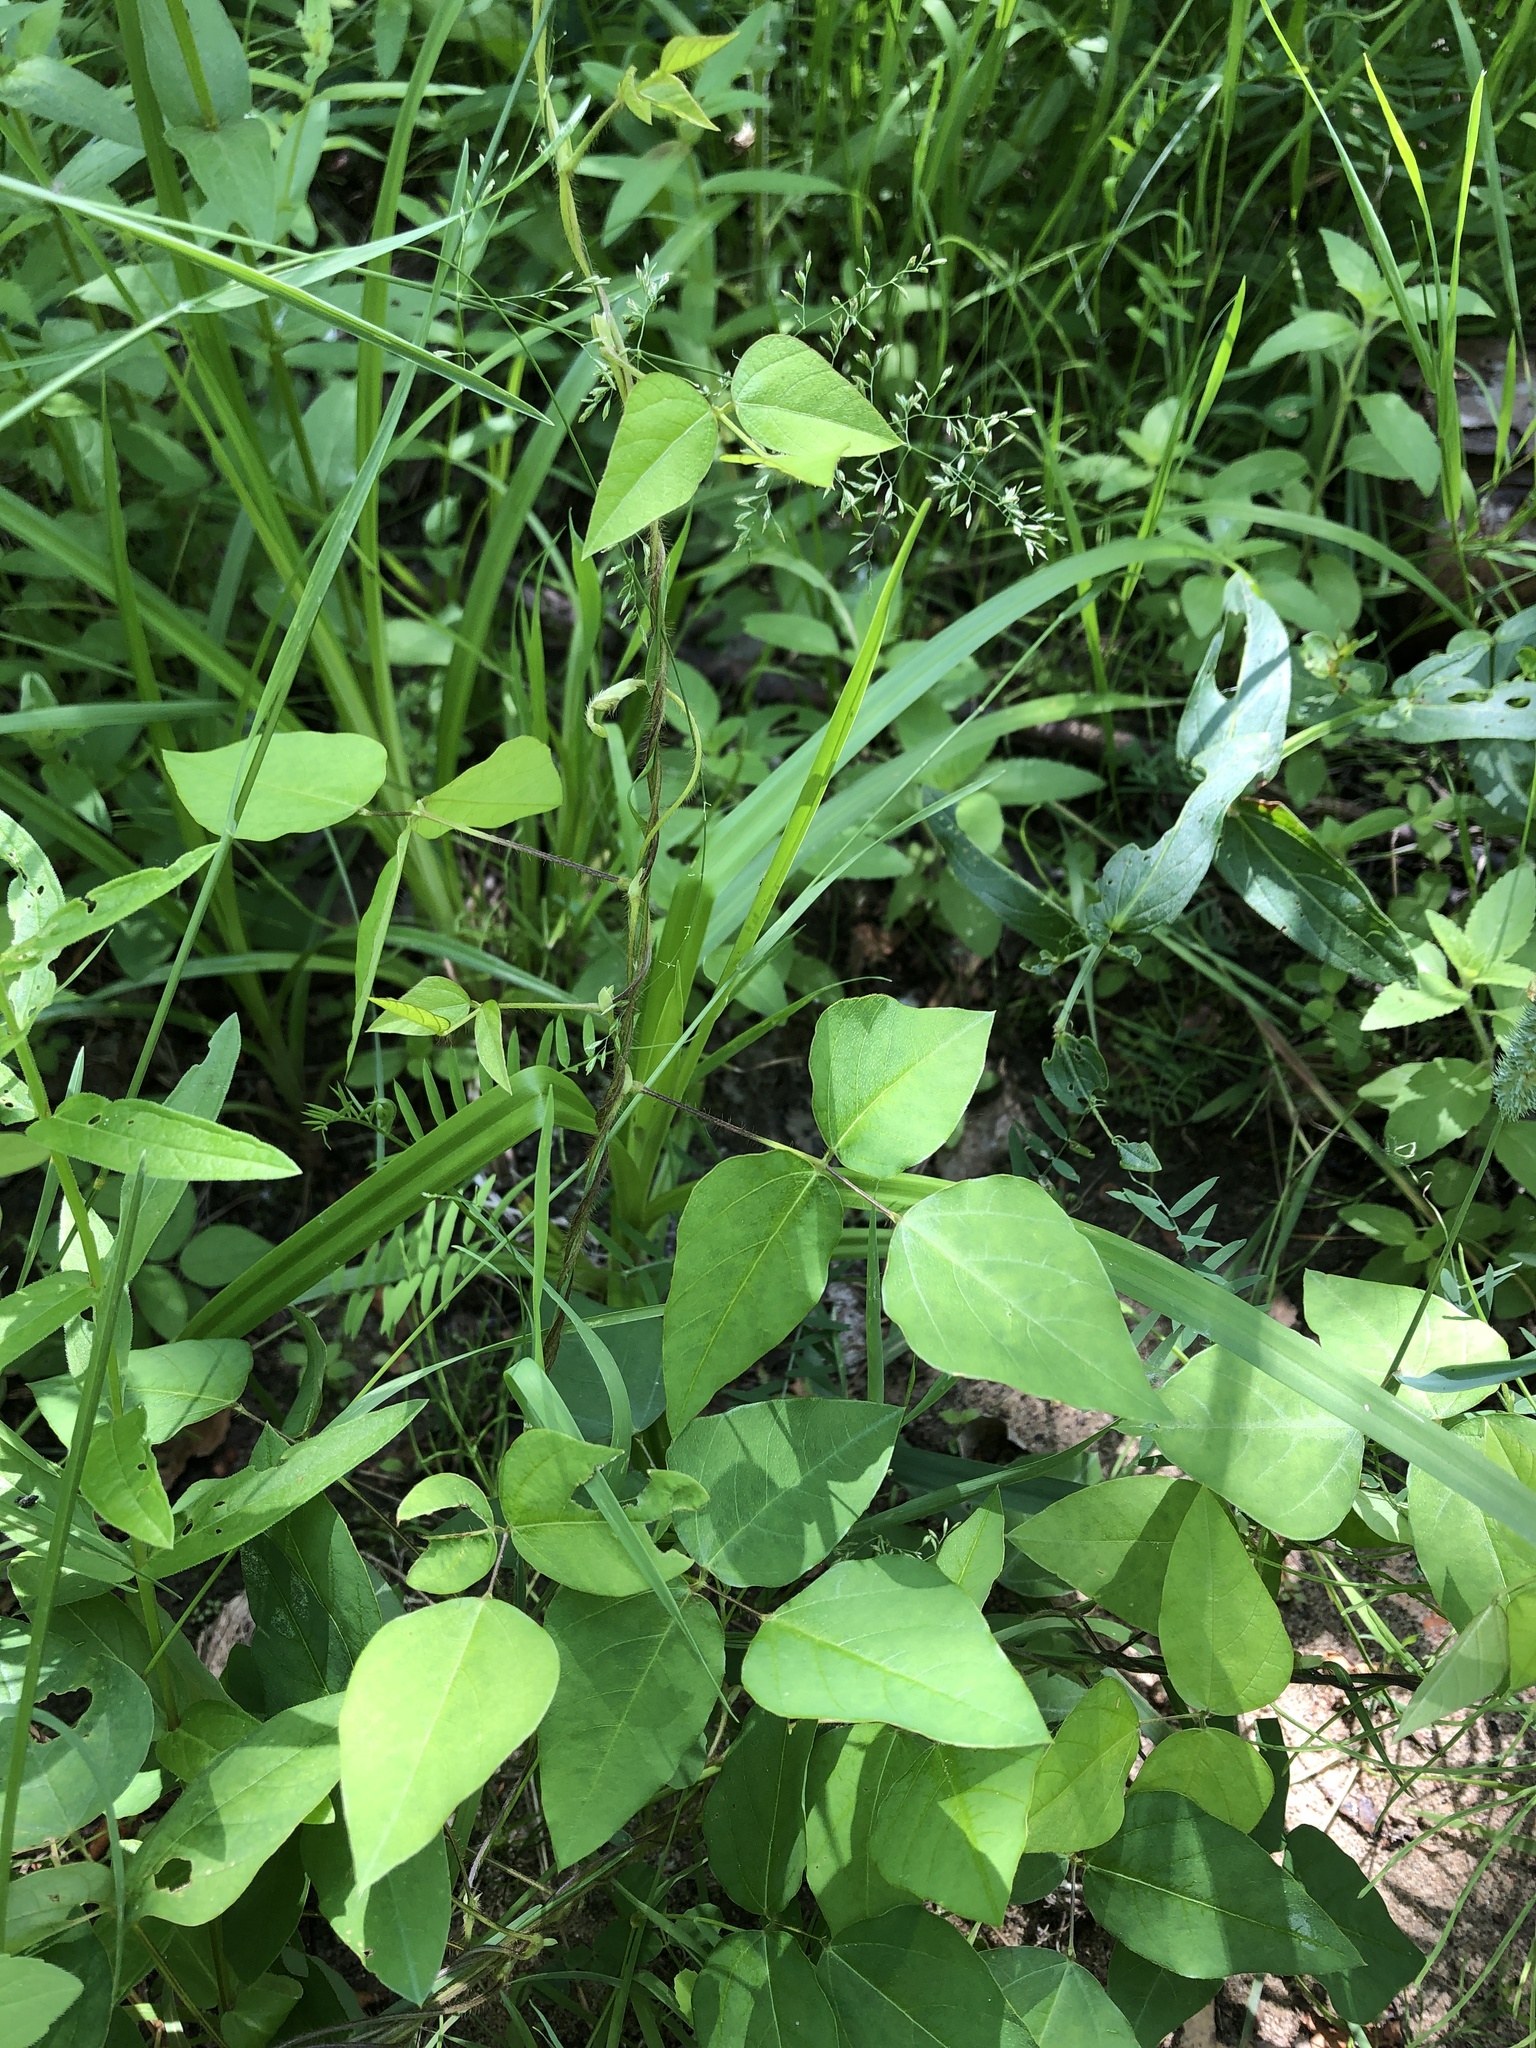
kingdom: Plantae
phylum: Tracheophyta
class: Magnoliopsida
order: Fabales
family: Fabaceae
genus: Amphicarpaea
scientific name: Amphicarpaea bracteata
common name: American hog peanut
